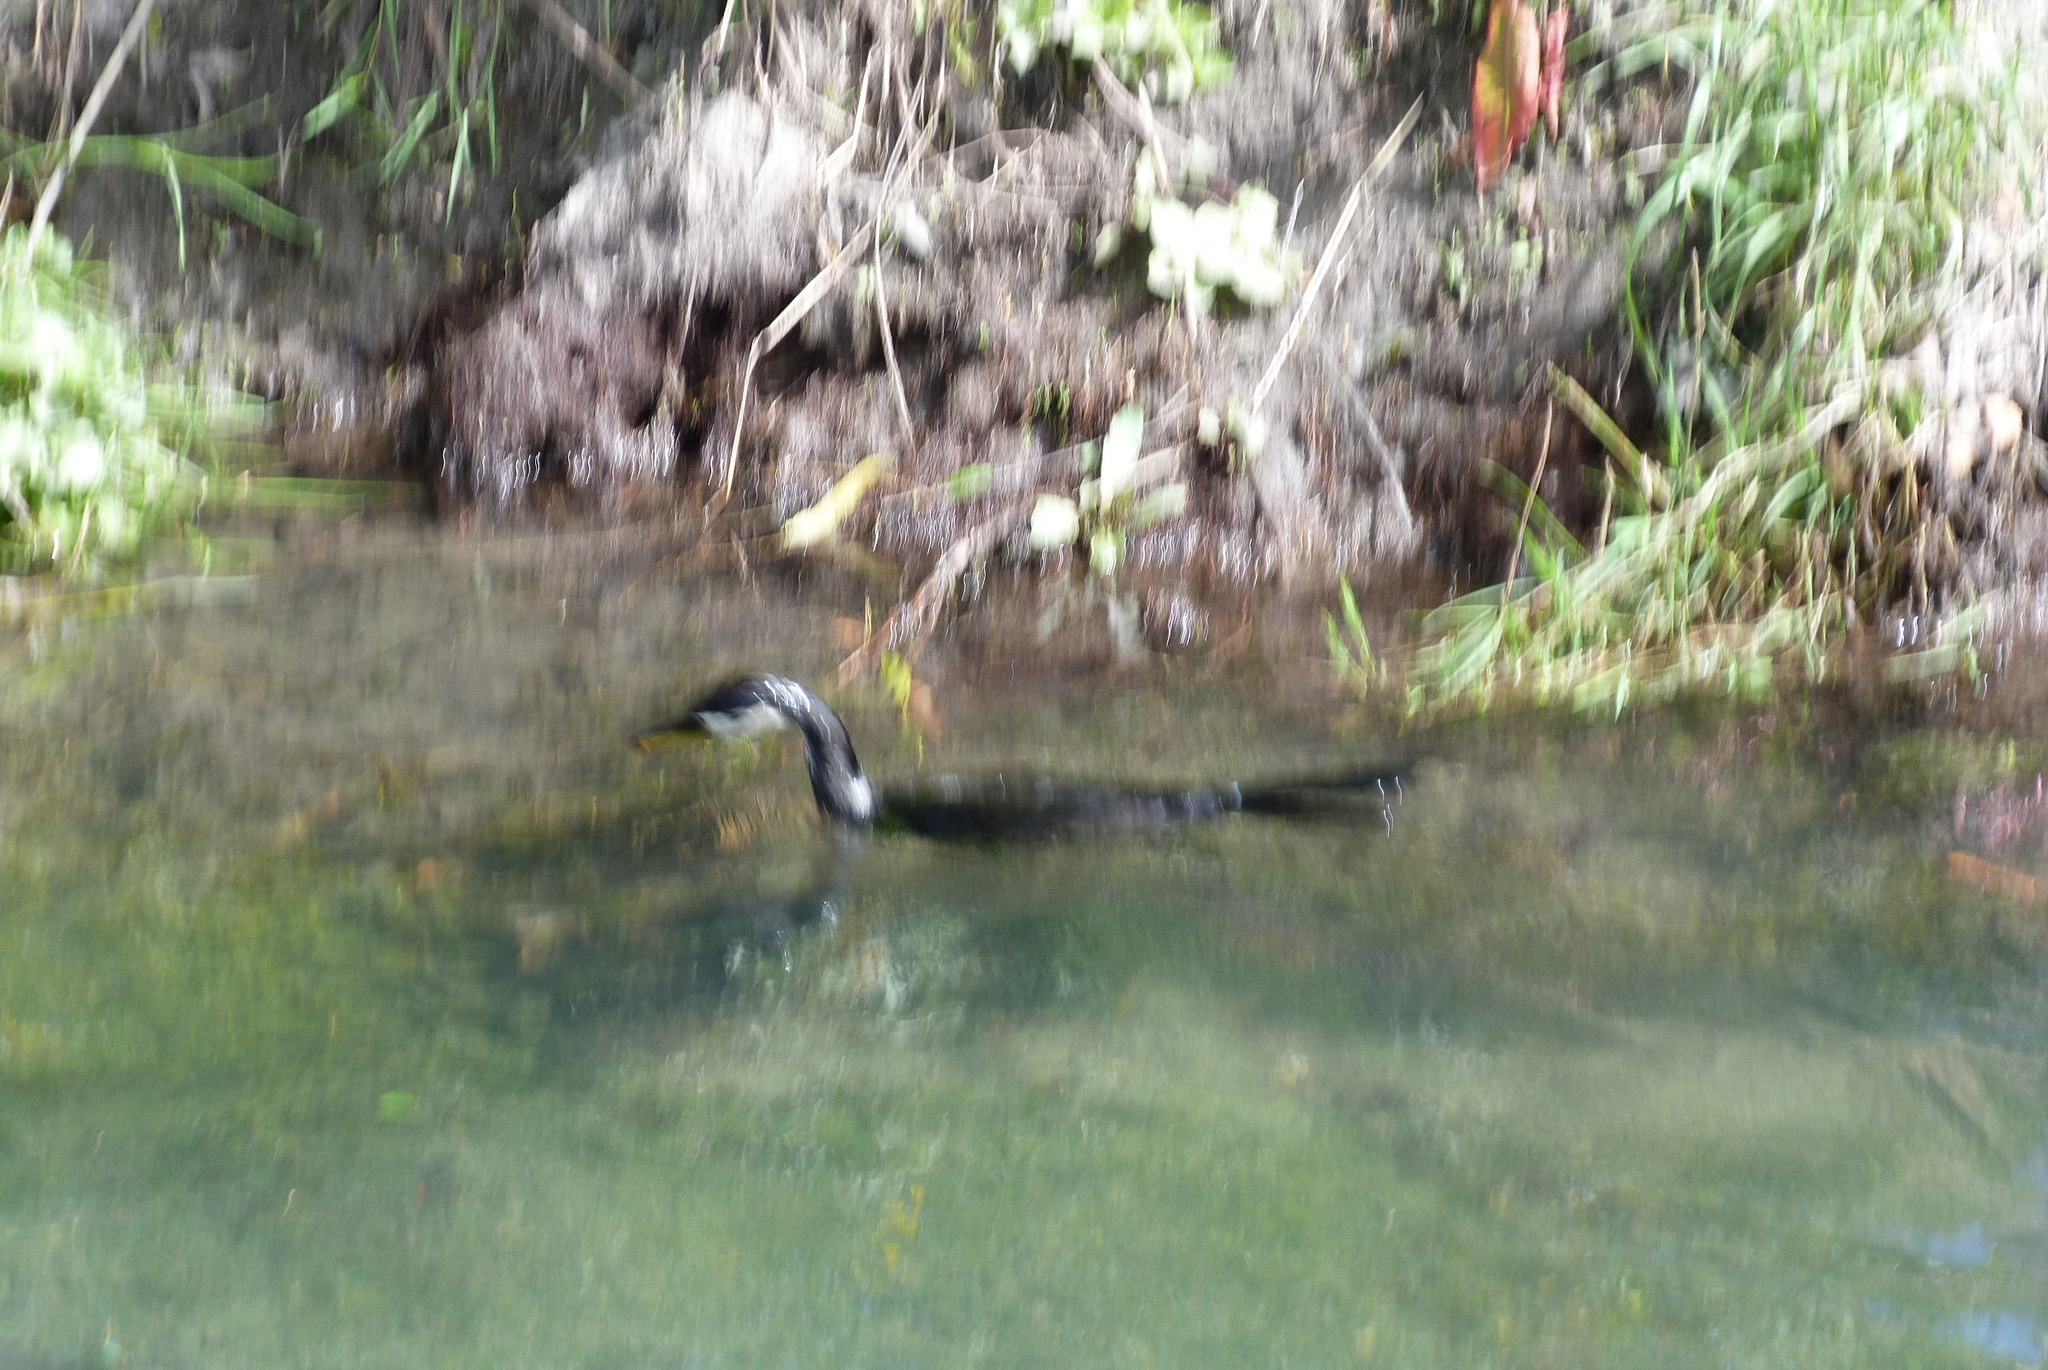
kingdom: Animalia
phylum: Chordata
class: Aves
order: Suliformes
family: Phalacrocoracidae
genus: Microcarbo
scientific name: Microcarbo melanoleucos
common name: Little pied cormorant
